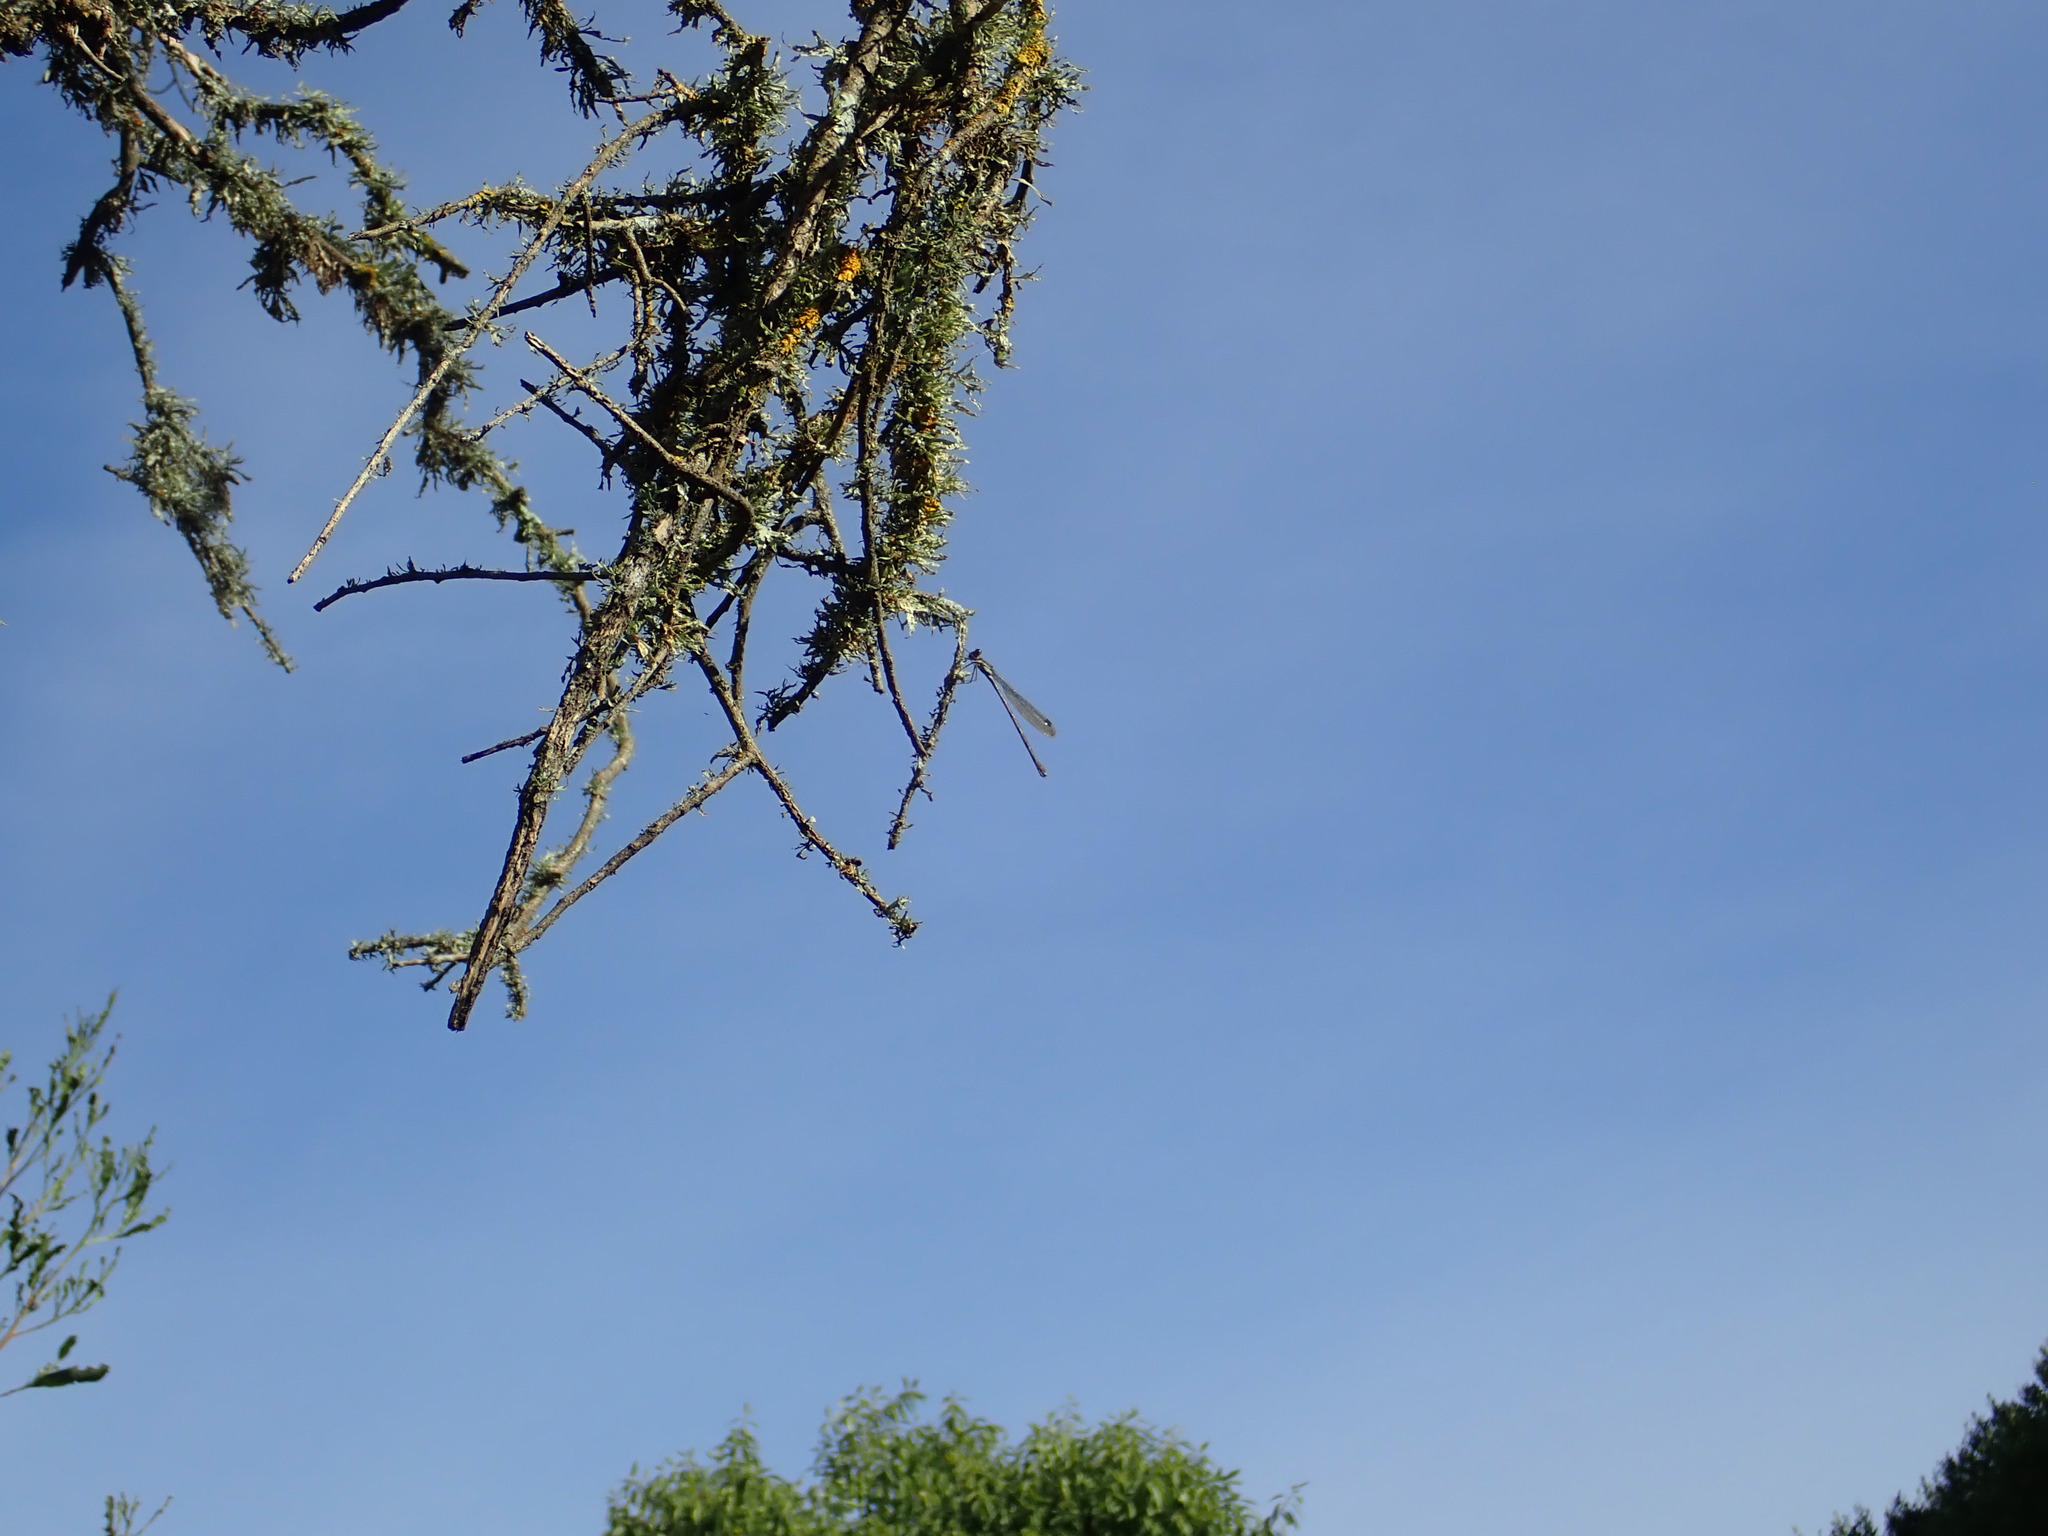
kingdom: Animalia
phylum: Arthropoda
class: Insecta
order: Odonata
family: Lestidae
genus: Austrolestes
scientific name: Austrolestes colensonis
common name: Blue damselfly
